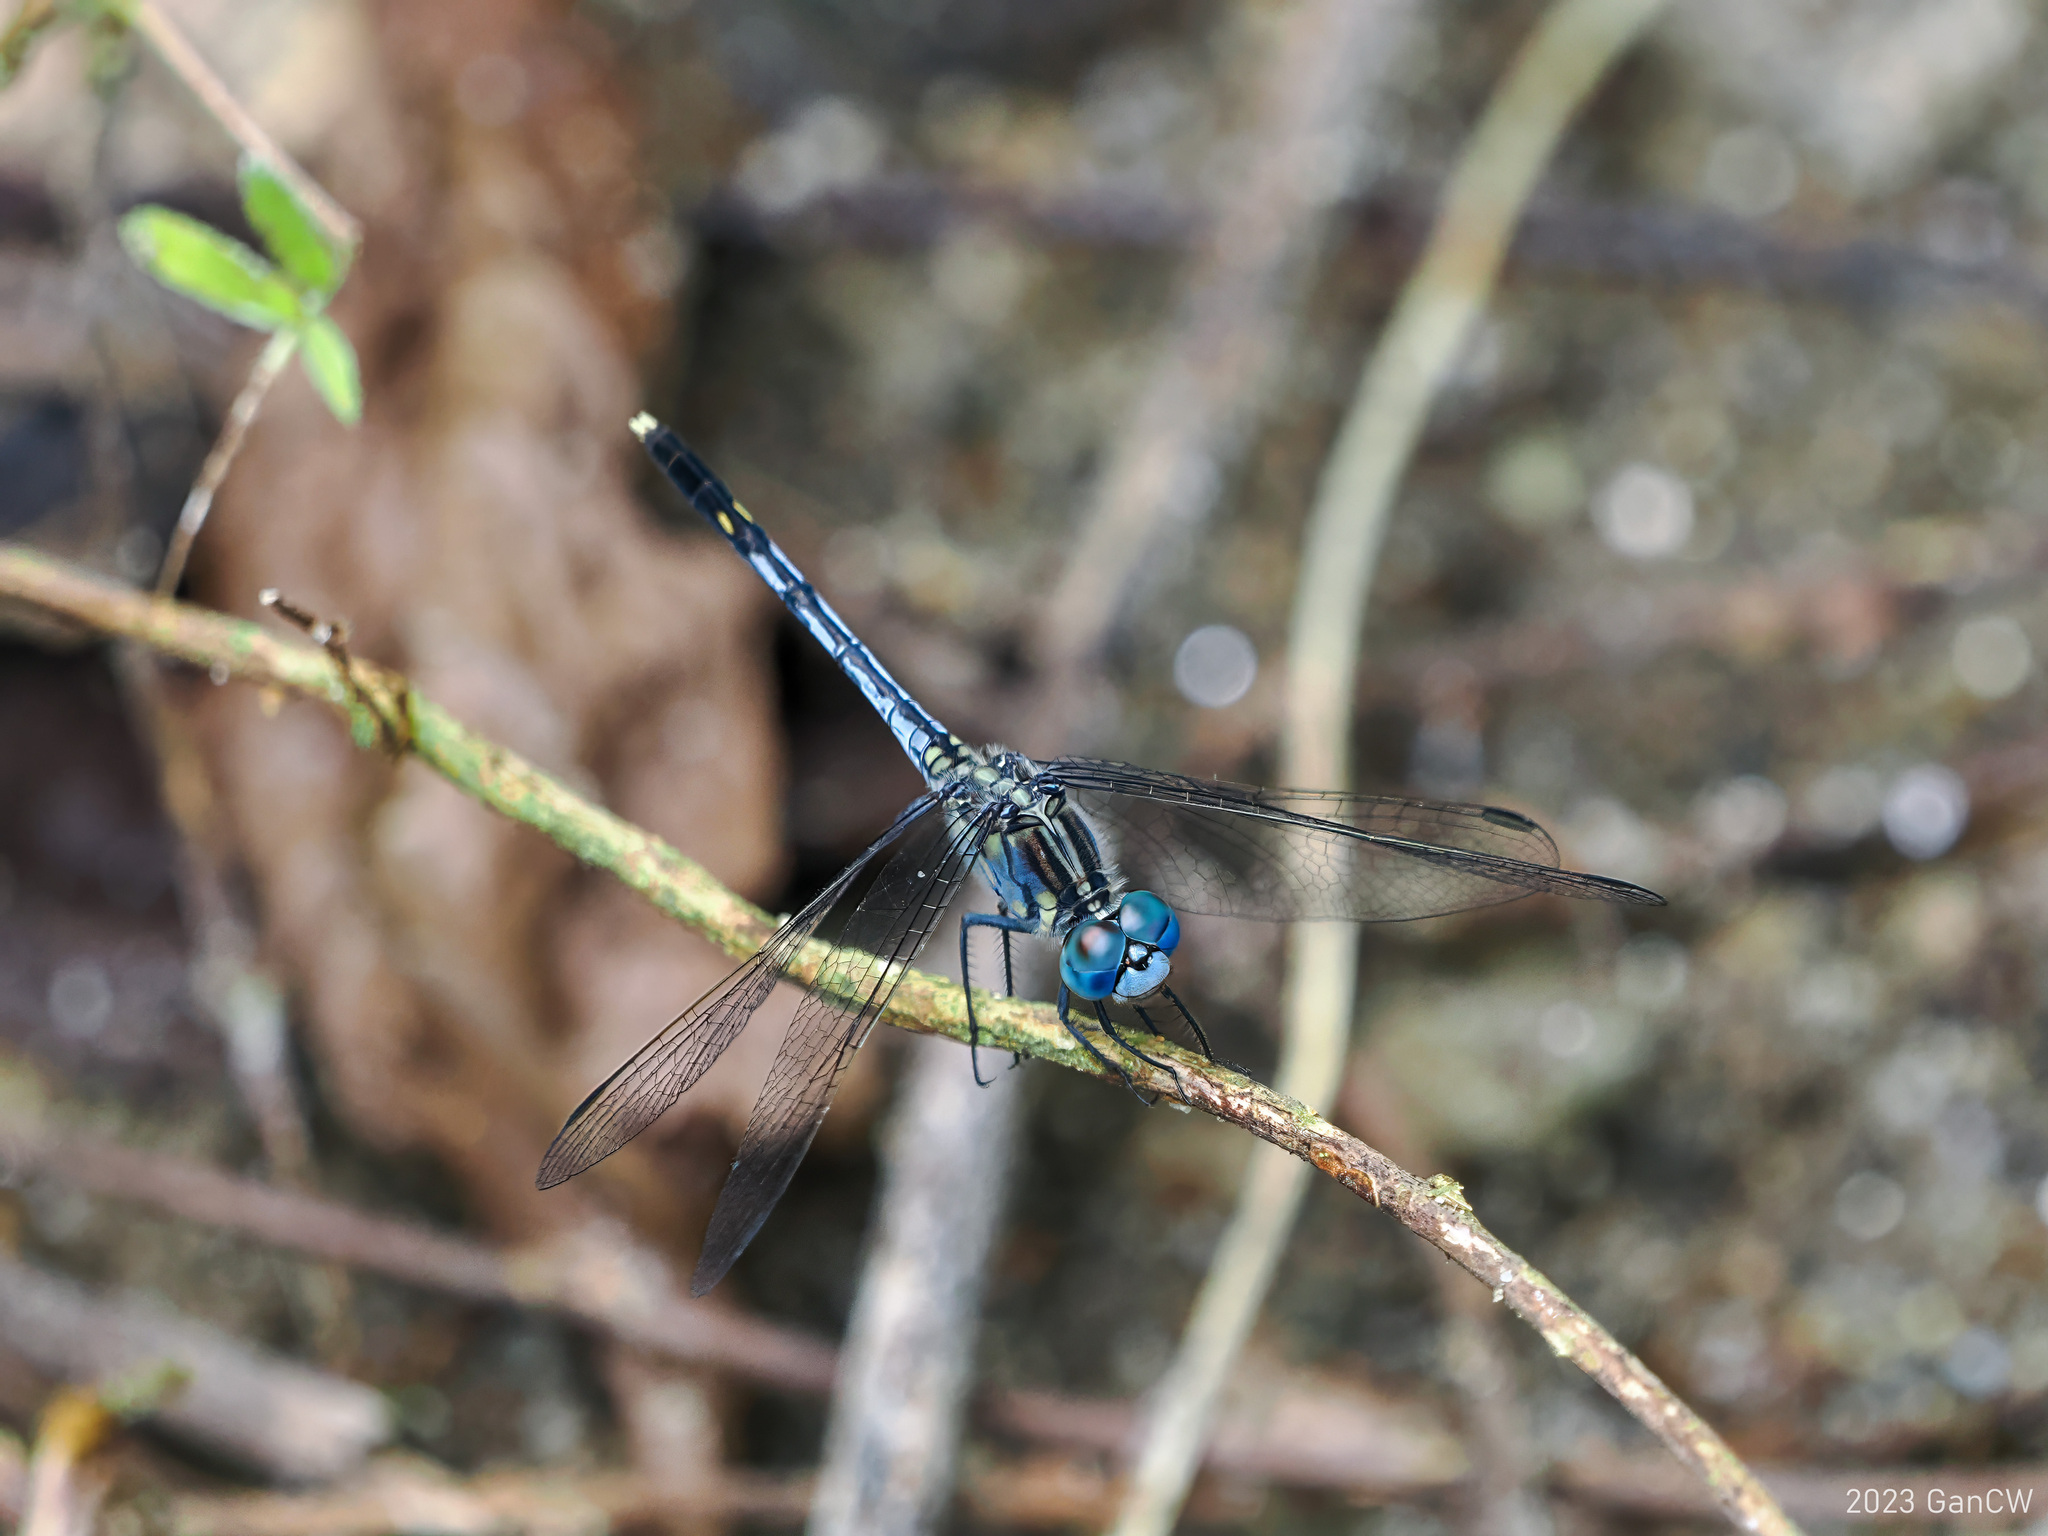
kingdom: Animalia
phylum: Arthropoda
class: Insecta
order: Odonata
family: Libellulidae
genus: Diplacodes
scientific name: Diplacodes trivialis
